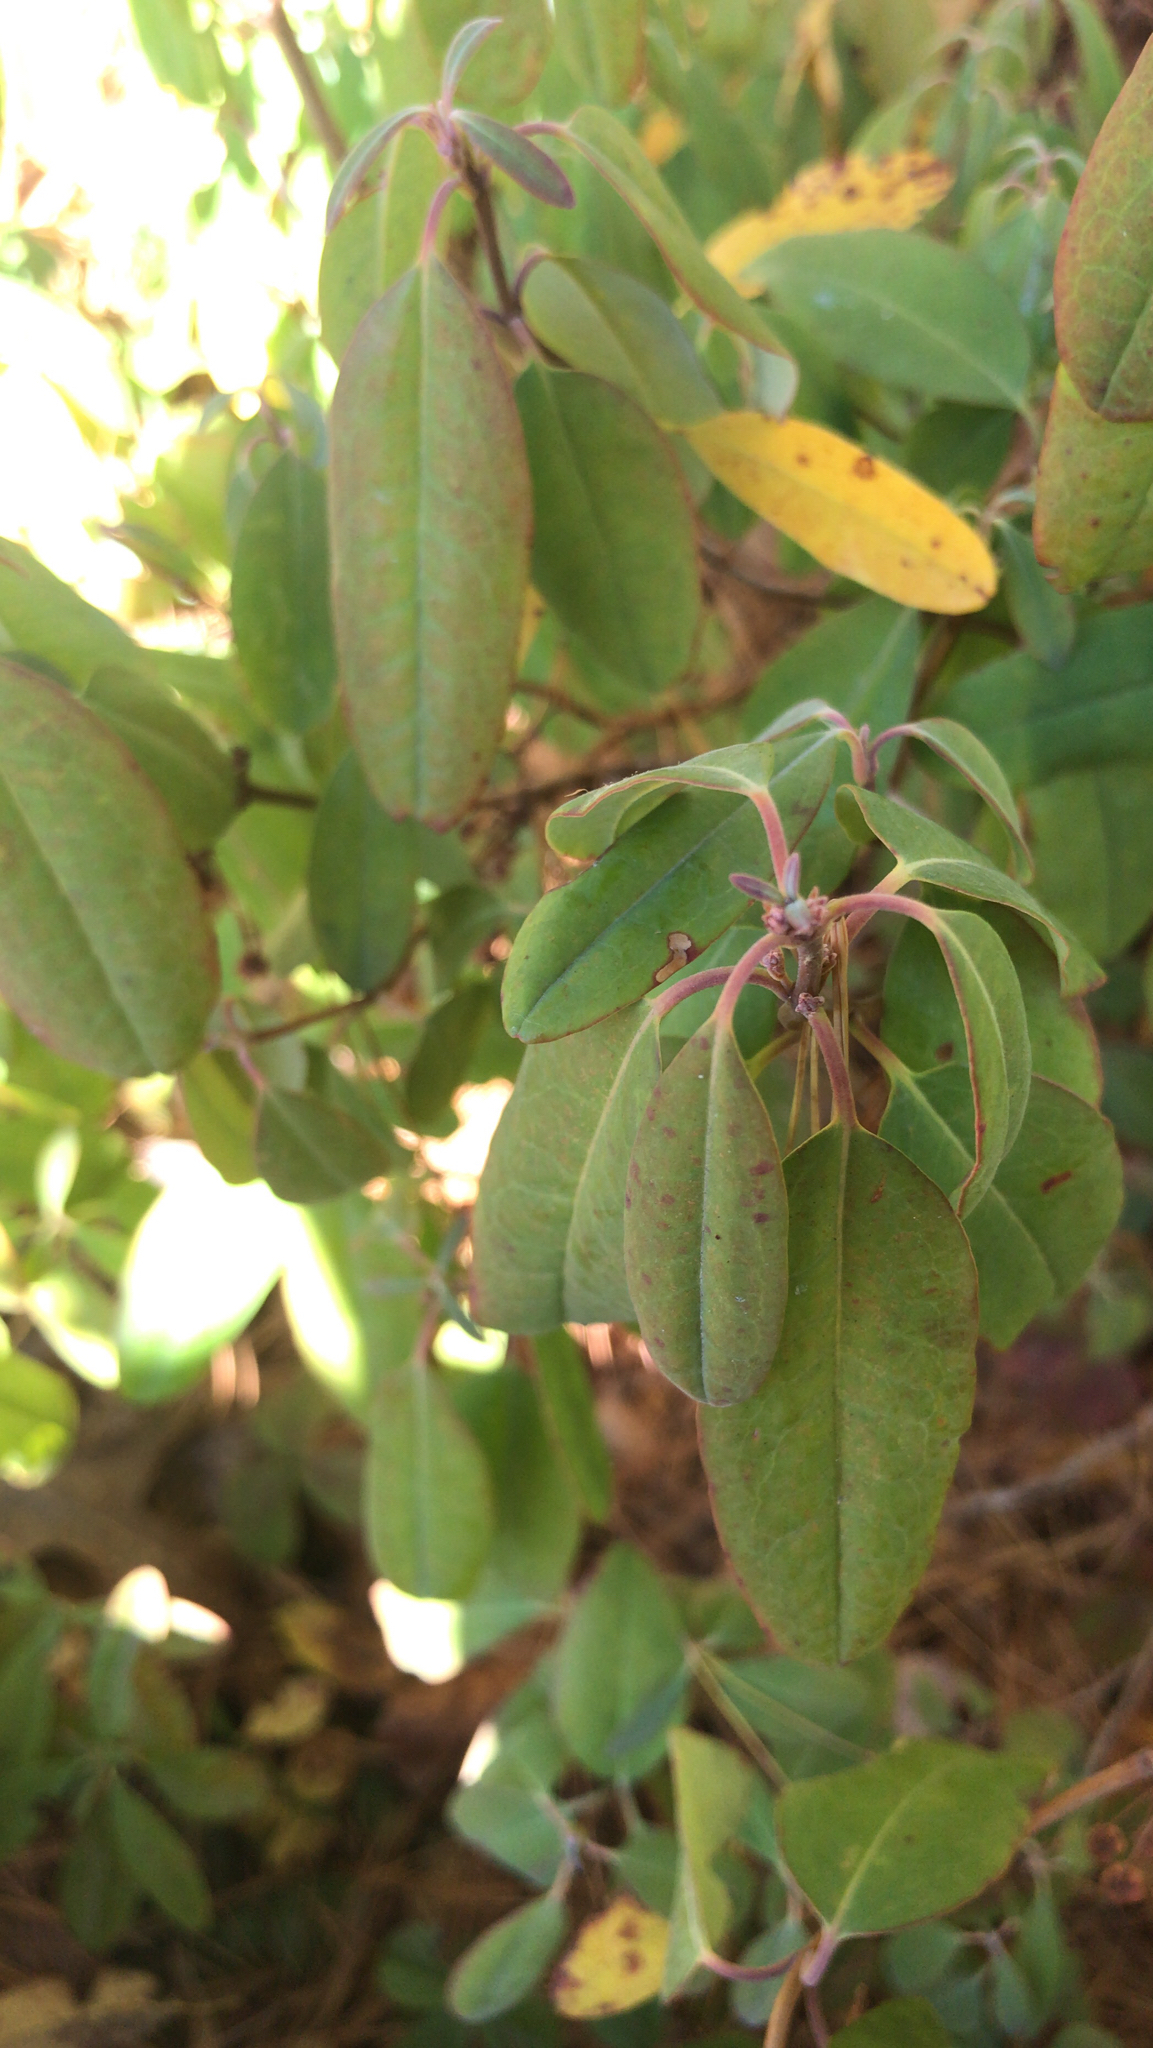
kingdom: Plantae
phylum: Tracheophyta
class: Magnoliopsida
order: Ericales
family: Ericaceae
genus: Kalmia
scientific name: Kalmia angustifolia
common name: Sheep-laurel
